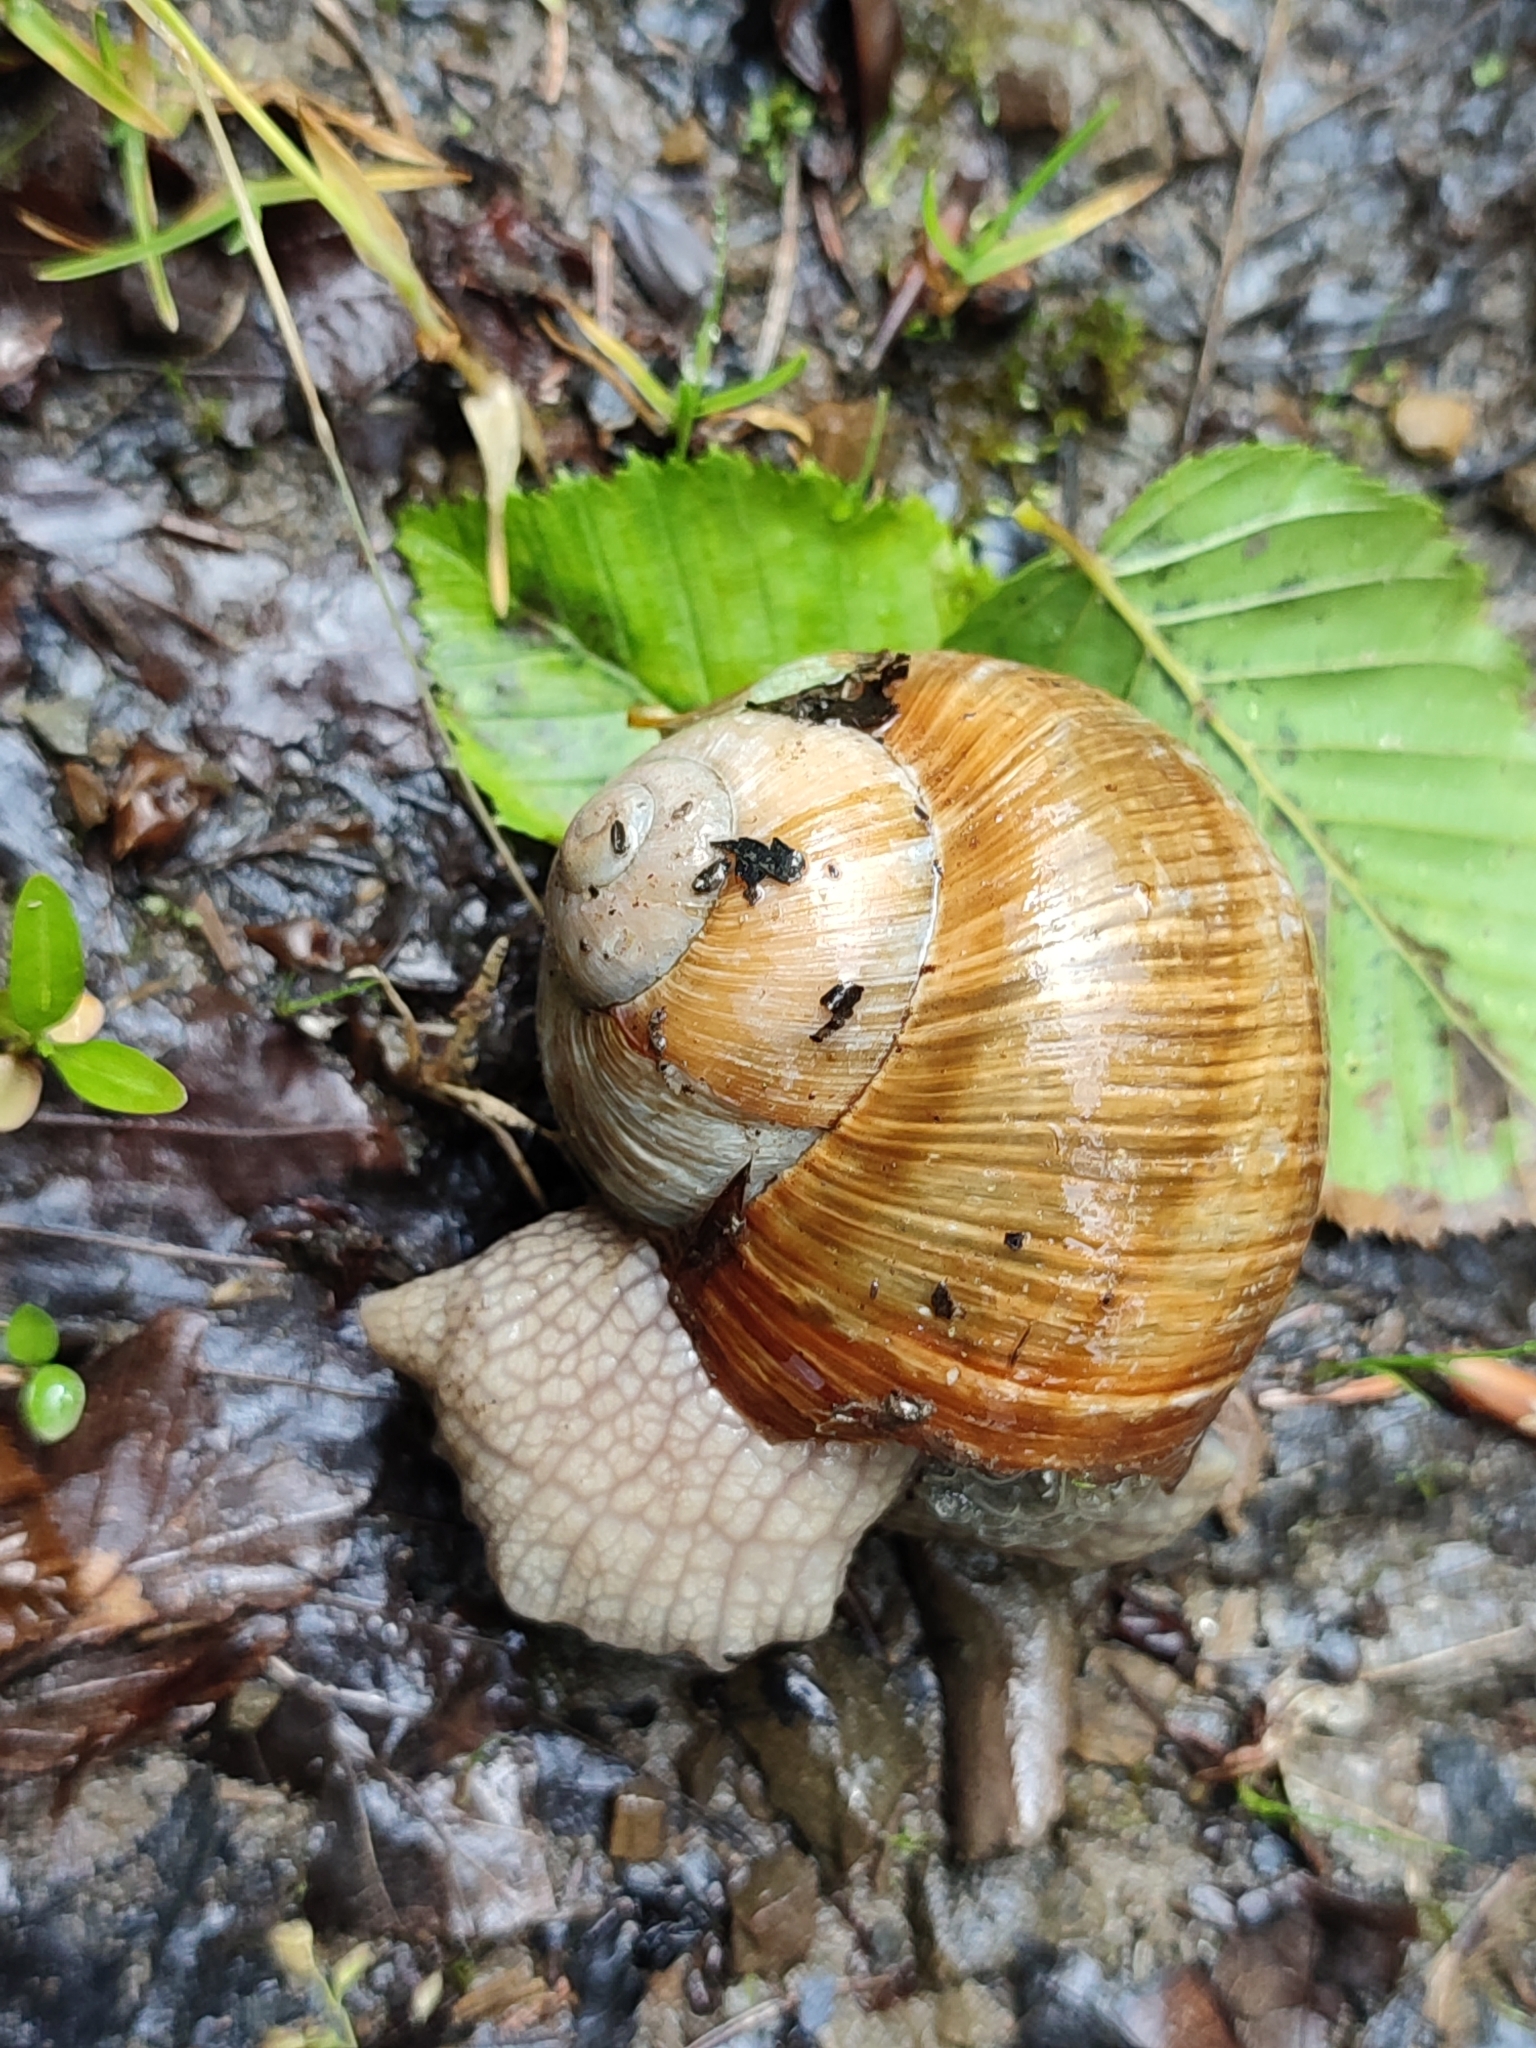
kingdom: Animalia
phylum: Mollusca
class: Gastropoda
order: Stylommatophora
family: Helicidae
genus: Helix
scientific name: Helix pomatia
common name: Roman snail
